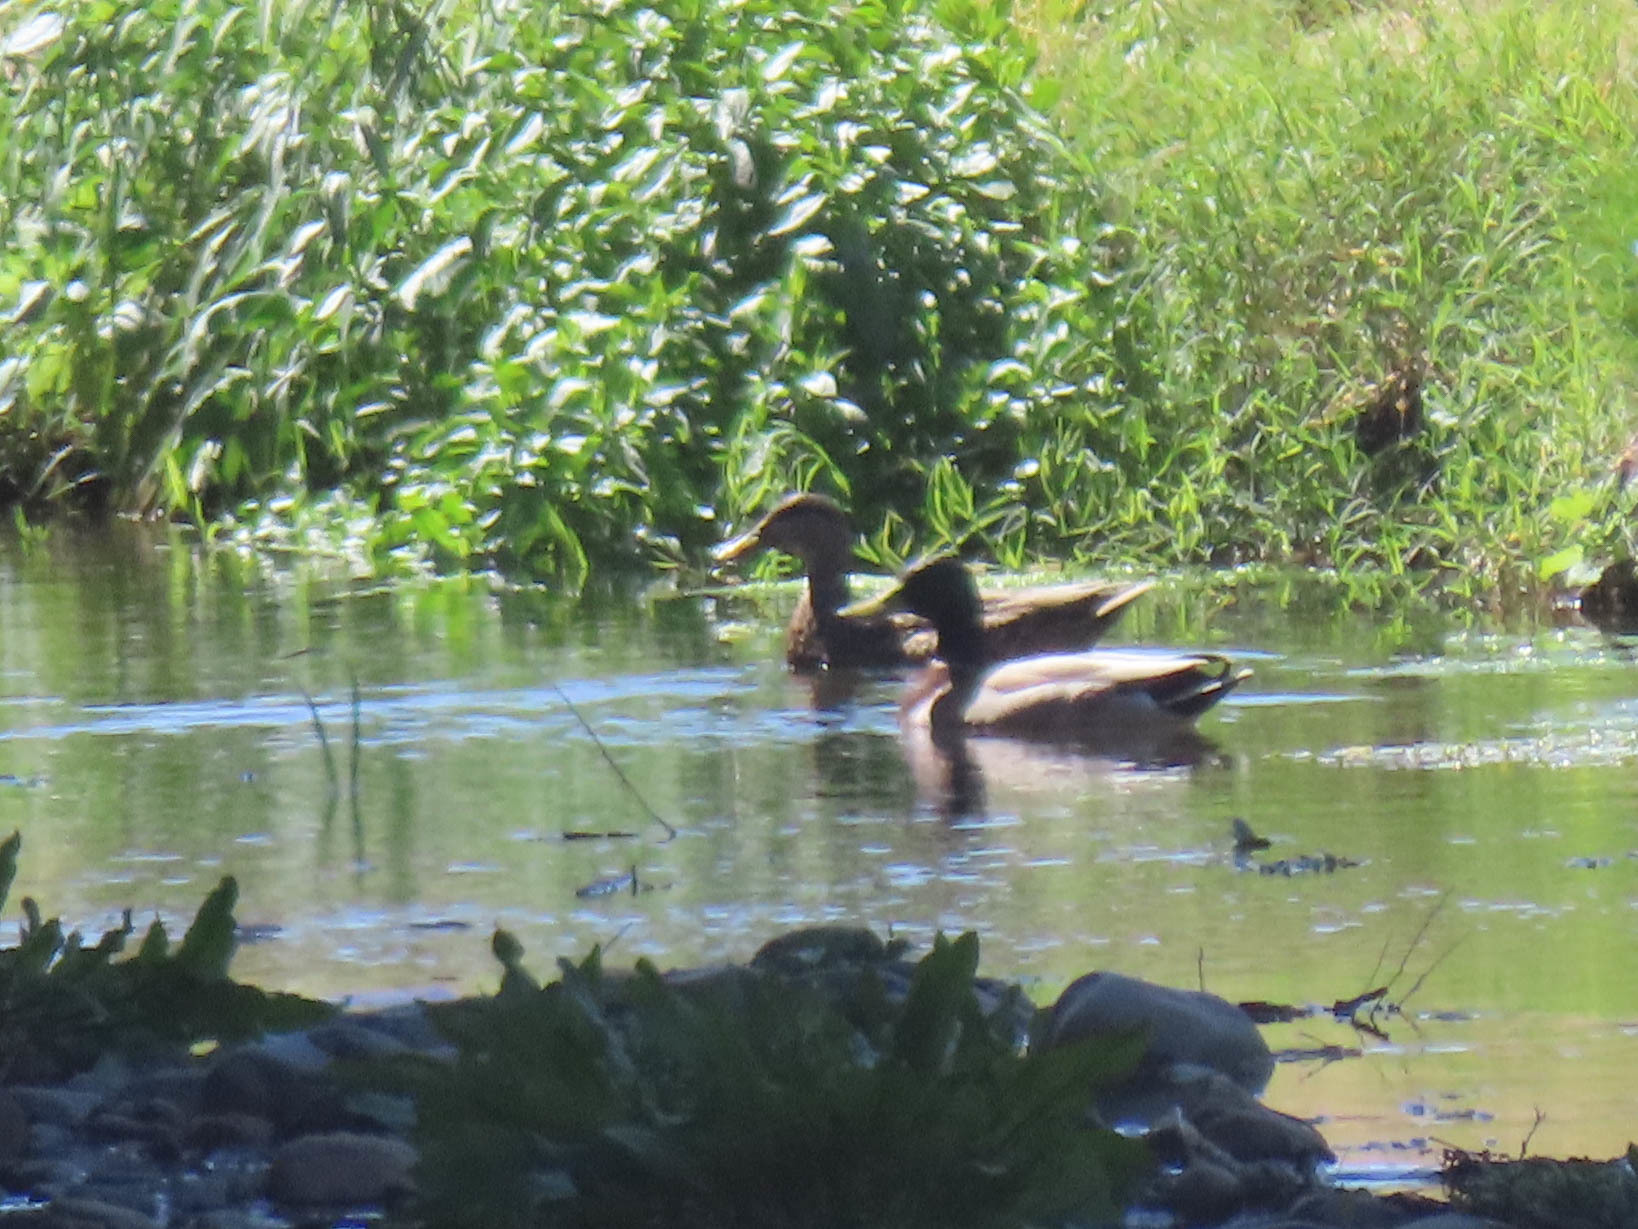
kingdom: Animalia
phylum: Chordata
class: Aves
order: Anseriformes
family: Anatidae
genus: Anas
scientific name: Anas platyrhynchos
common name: Mallard
